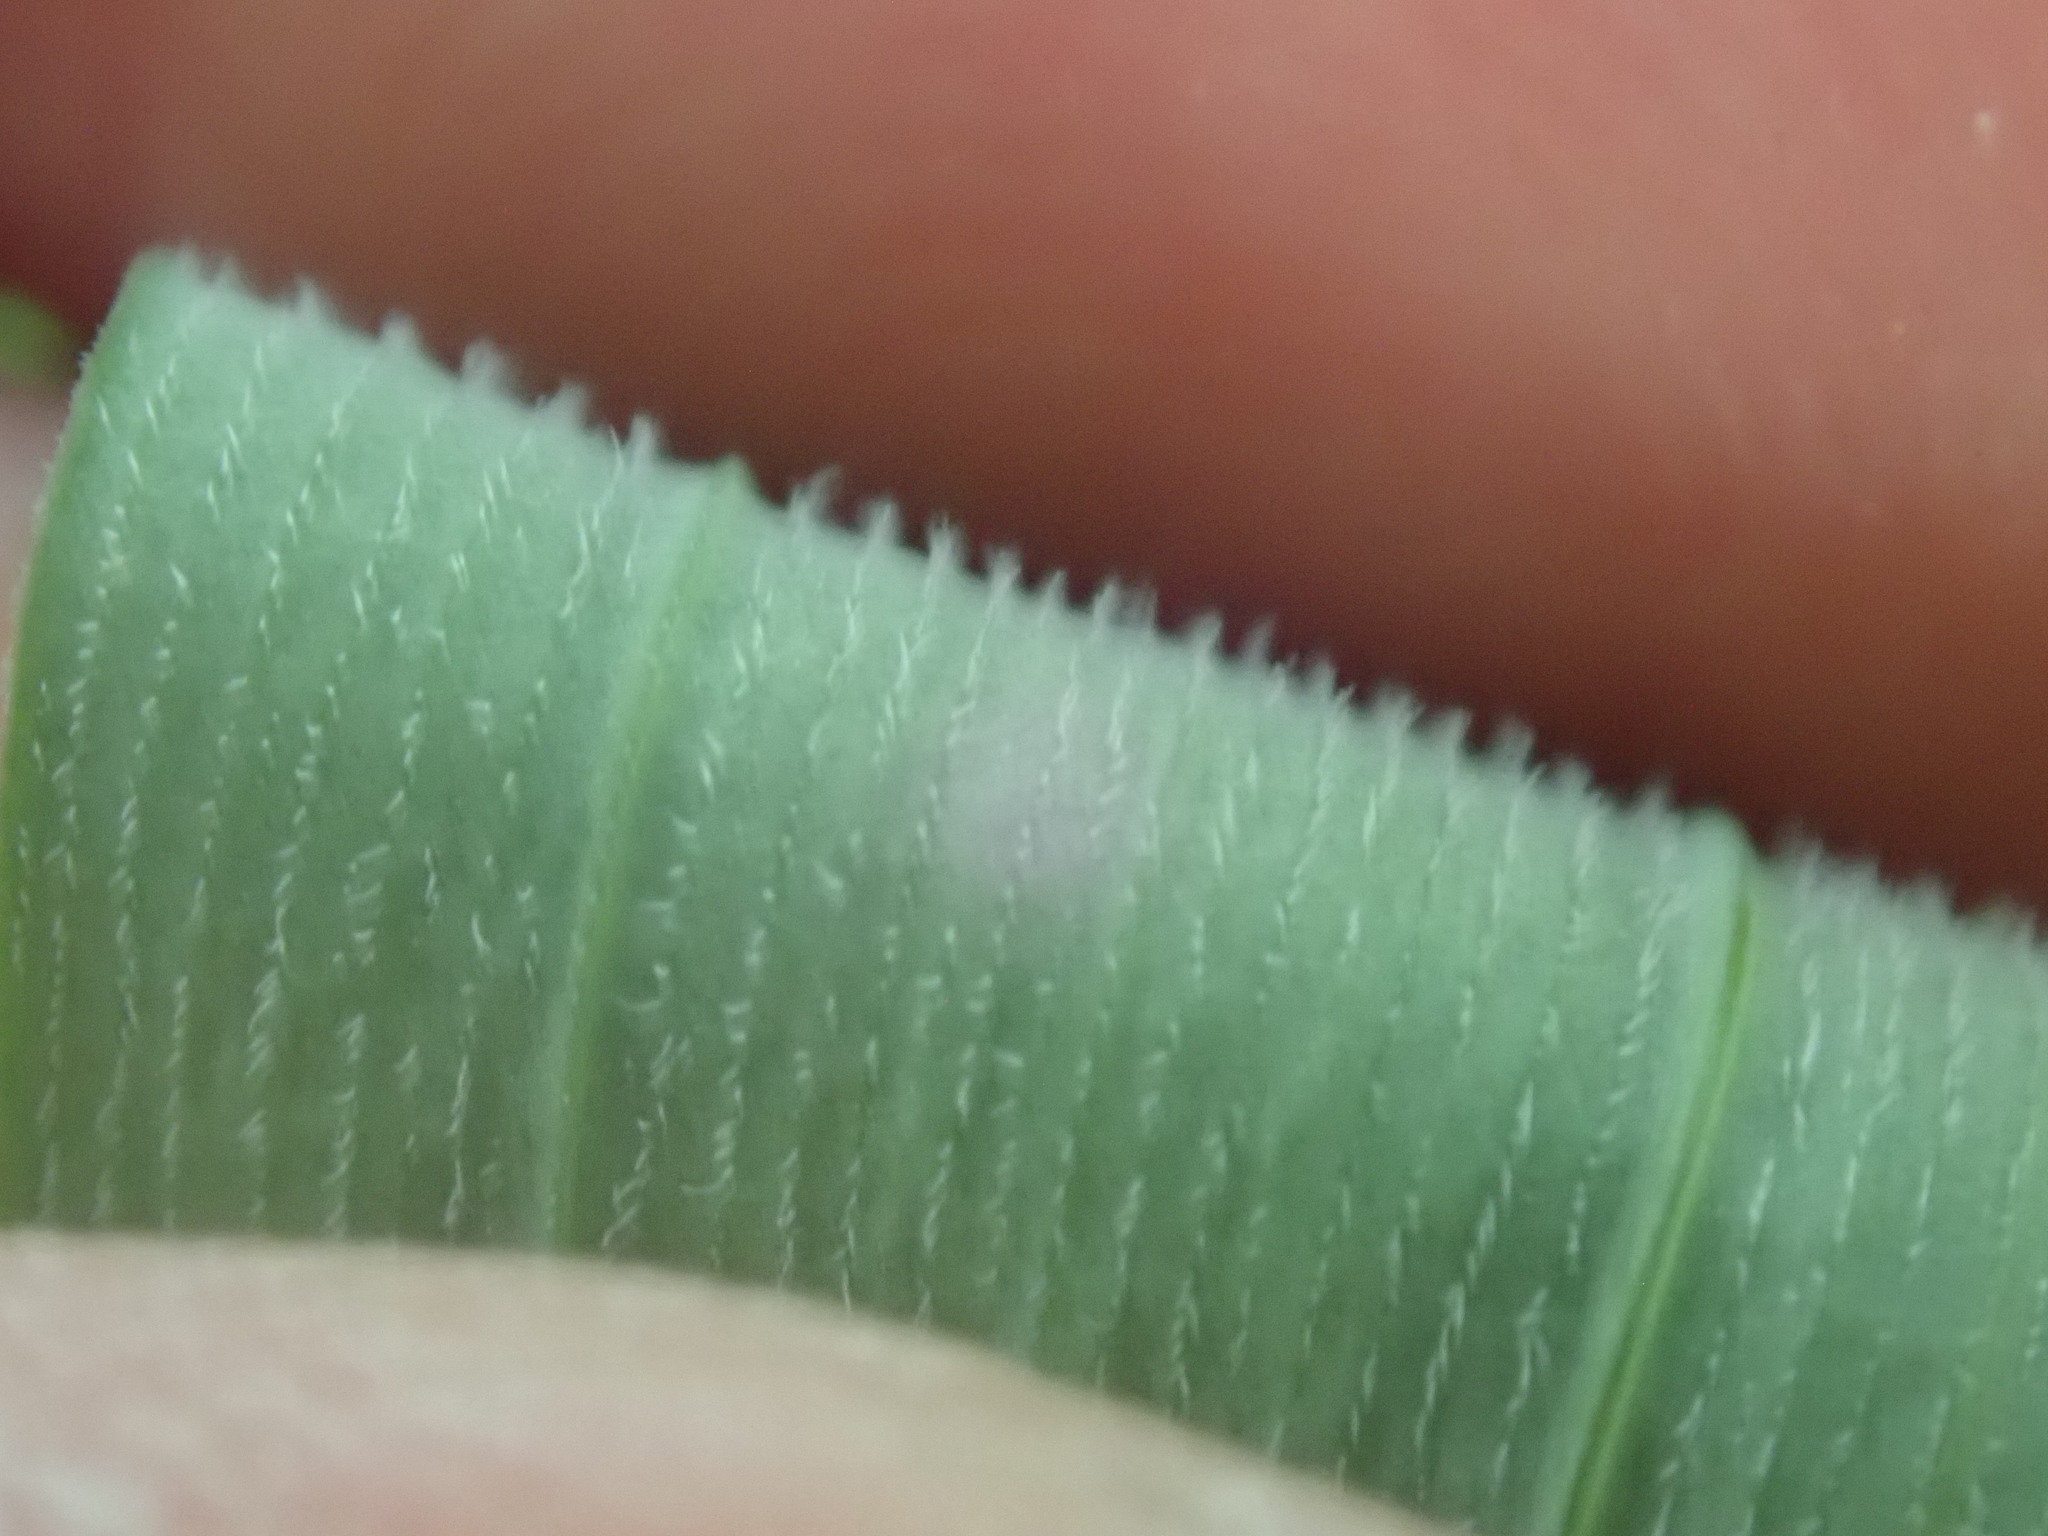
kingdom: Plantae
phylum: Tracheophyta
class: Liliopsida
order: Asparagales
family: Asparagaceae
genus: Polygonatum
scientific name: Polygonatum pubescens
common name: Downy solomon's seal
